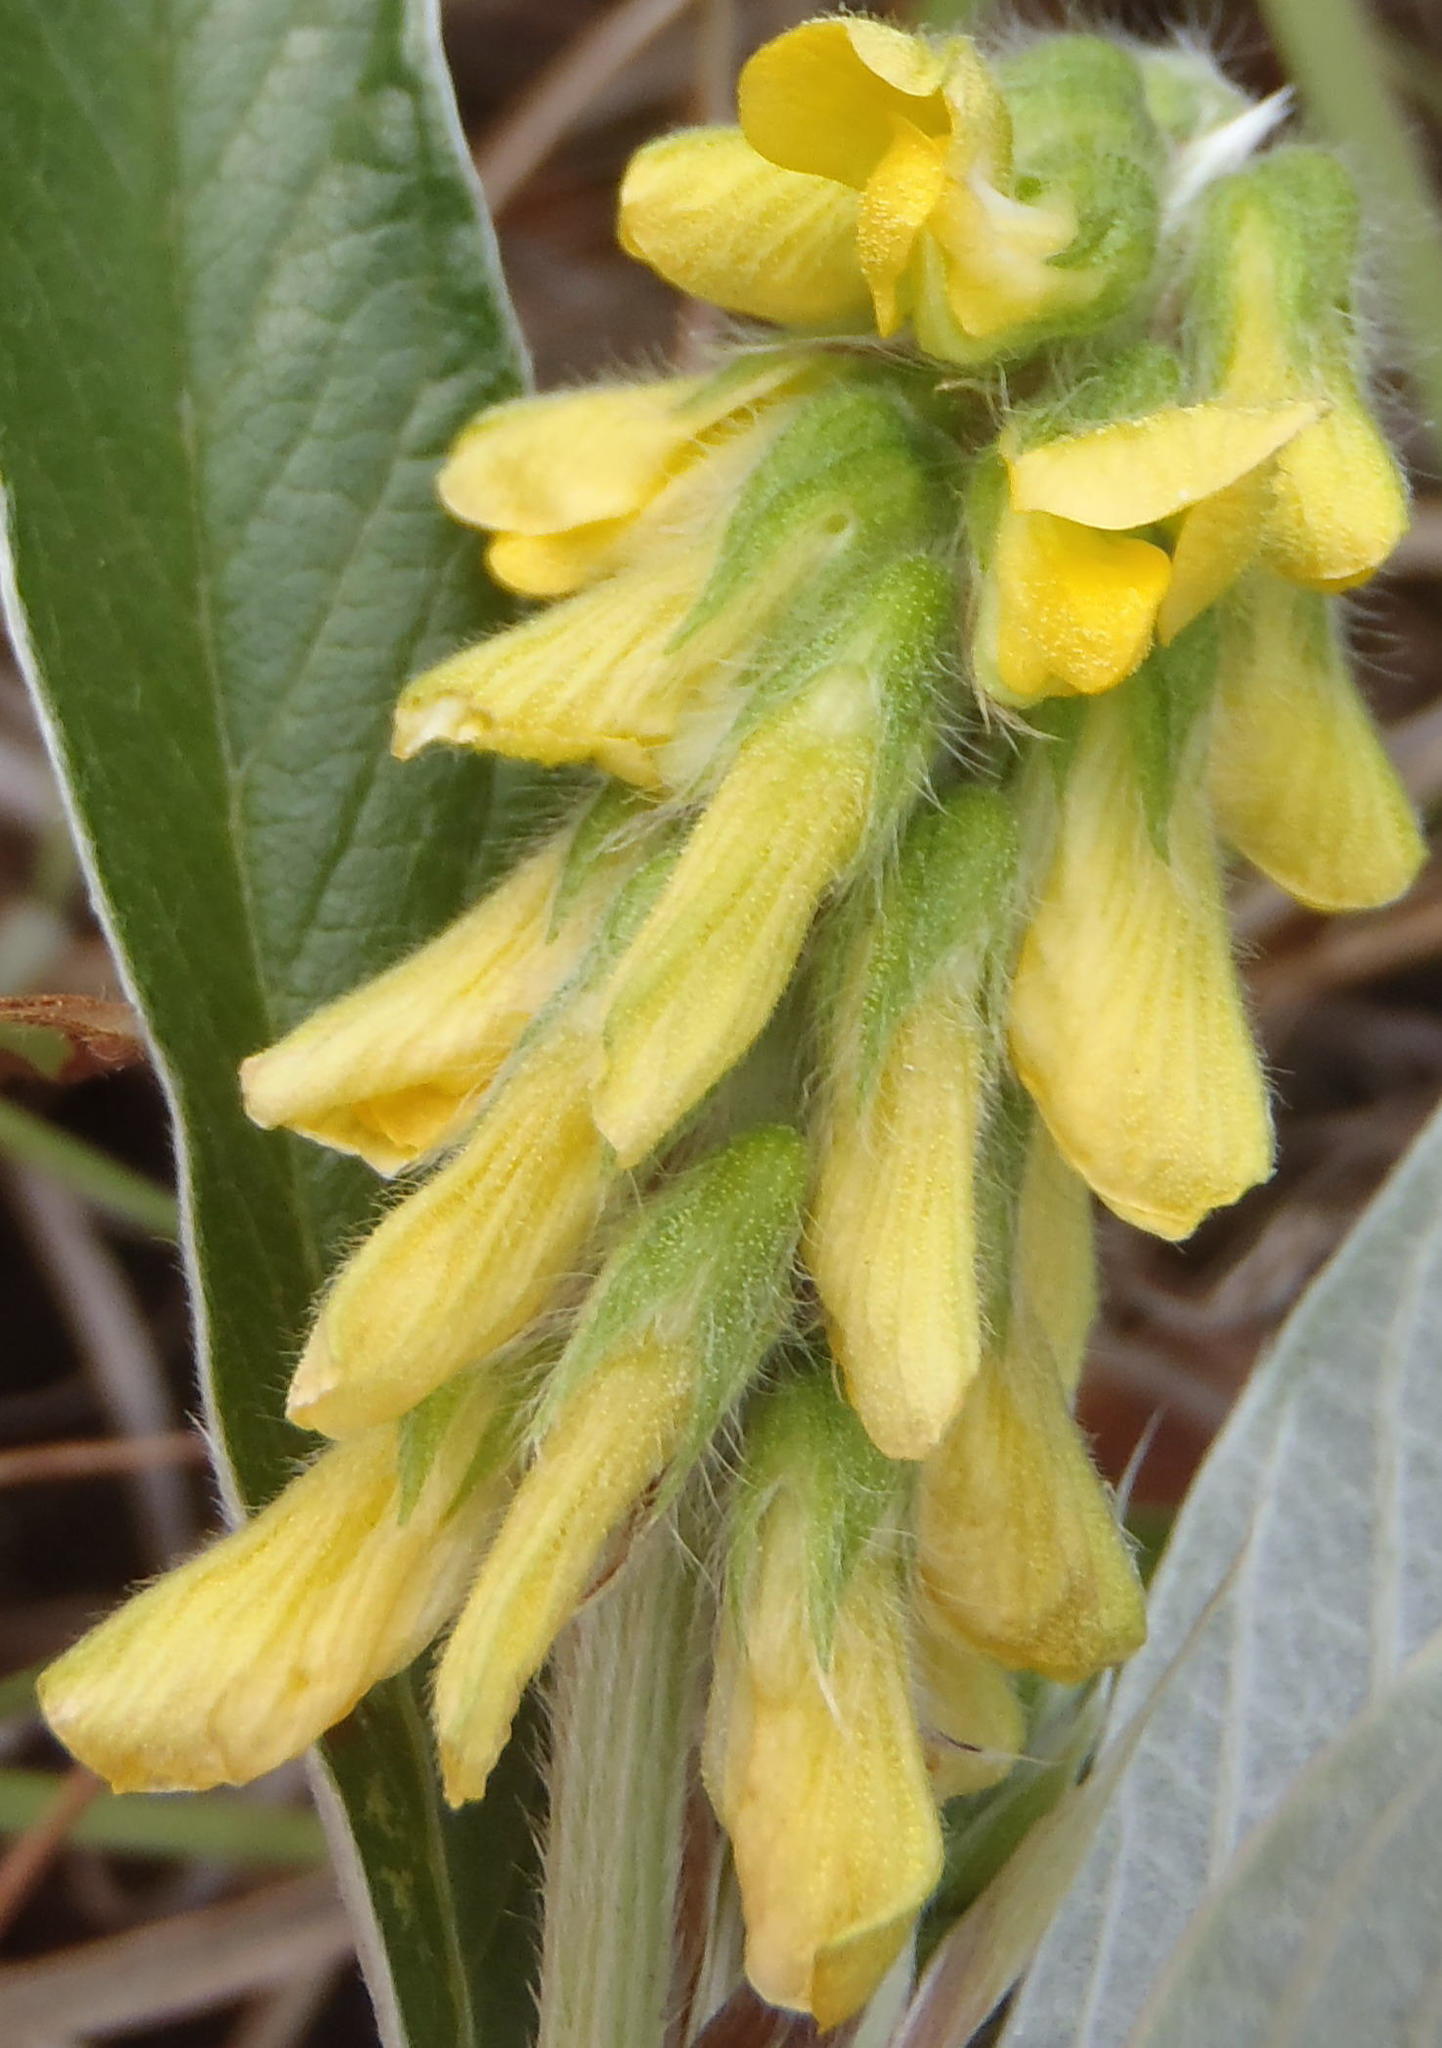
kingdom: Plantae
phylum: Tracheophyta
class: Magnoliopsida
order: Fabales
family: Fabaceae
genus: Eriosema
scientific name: Eriosema salignum
